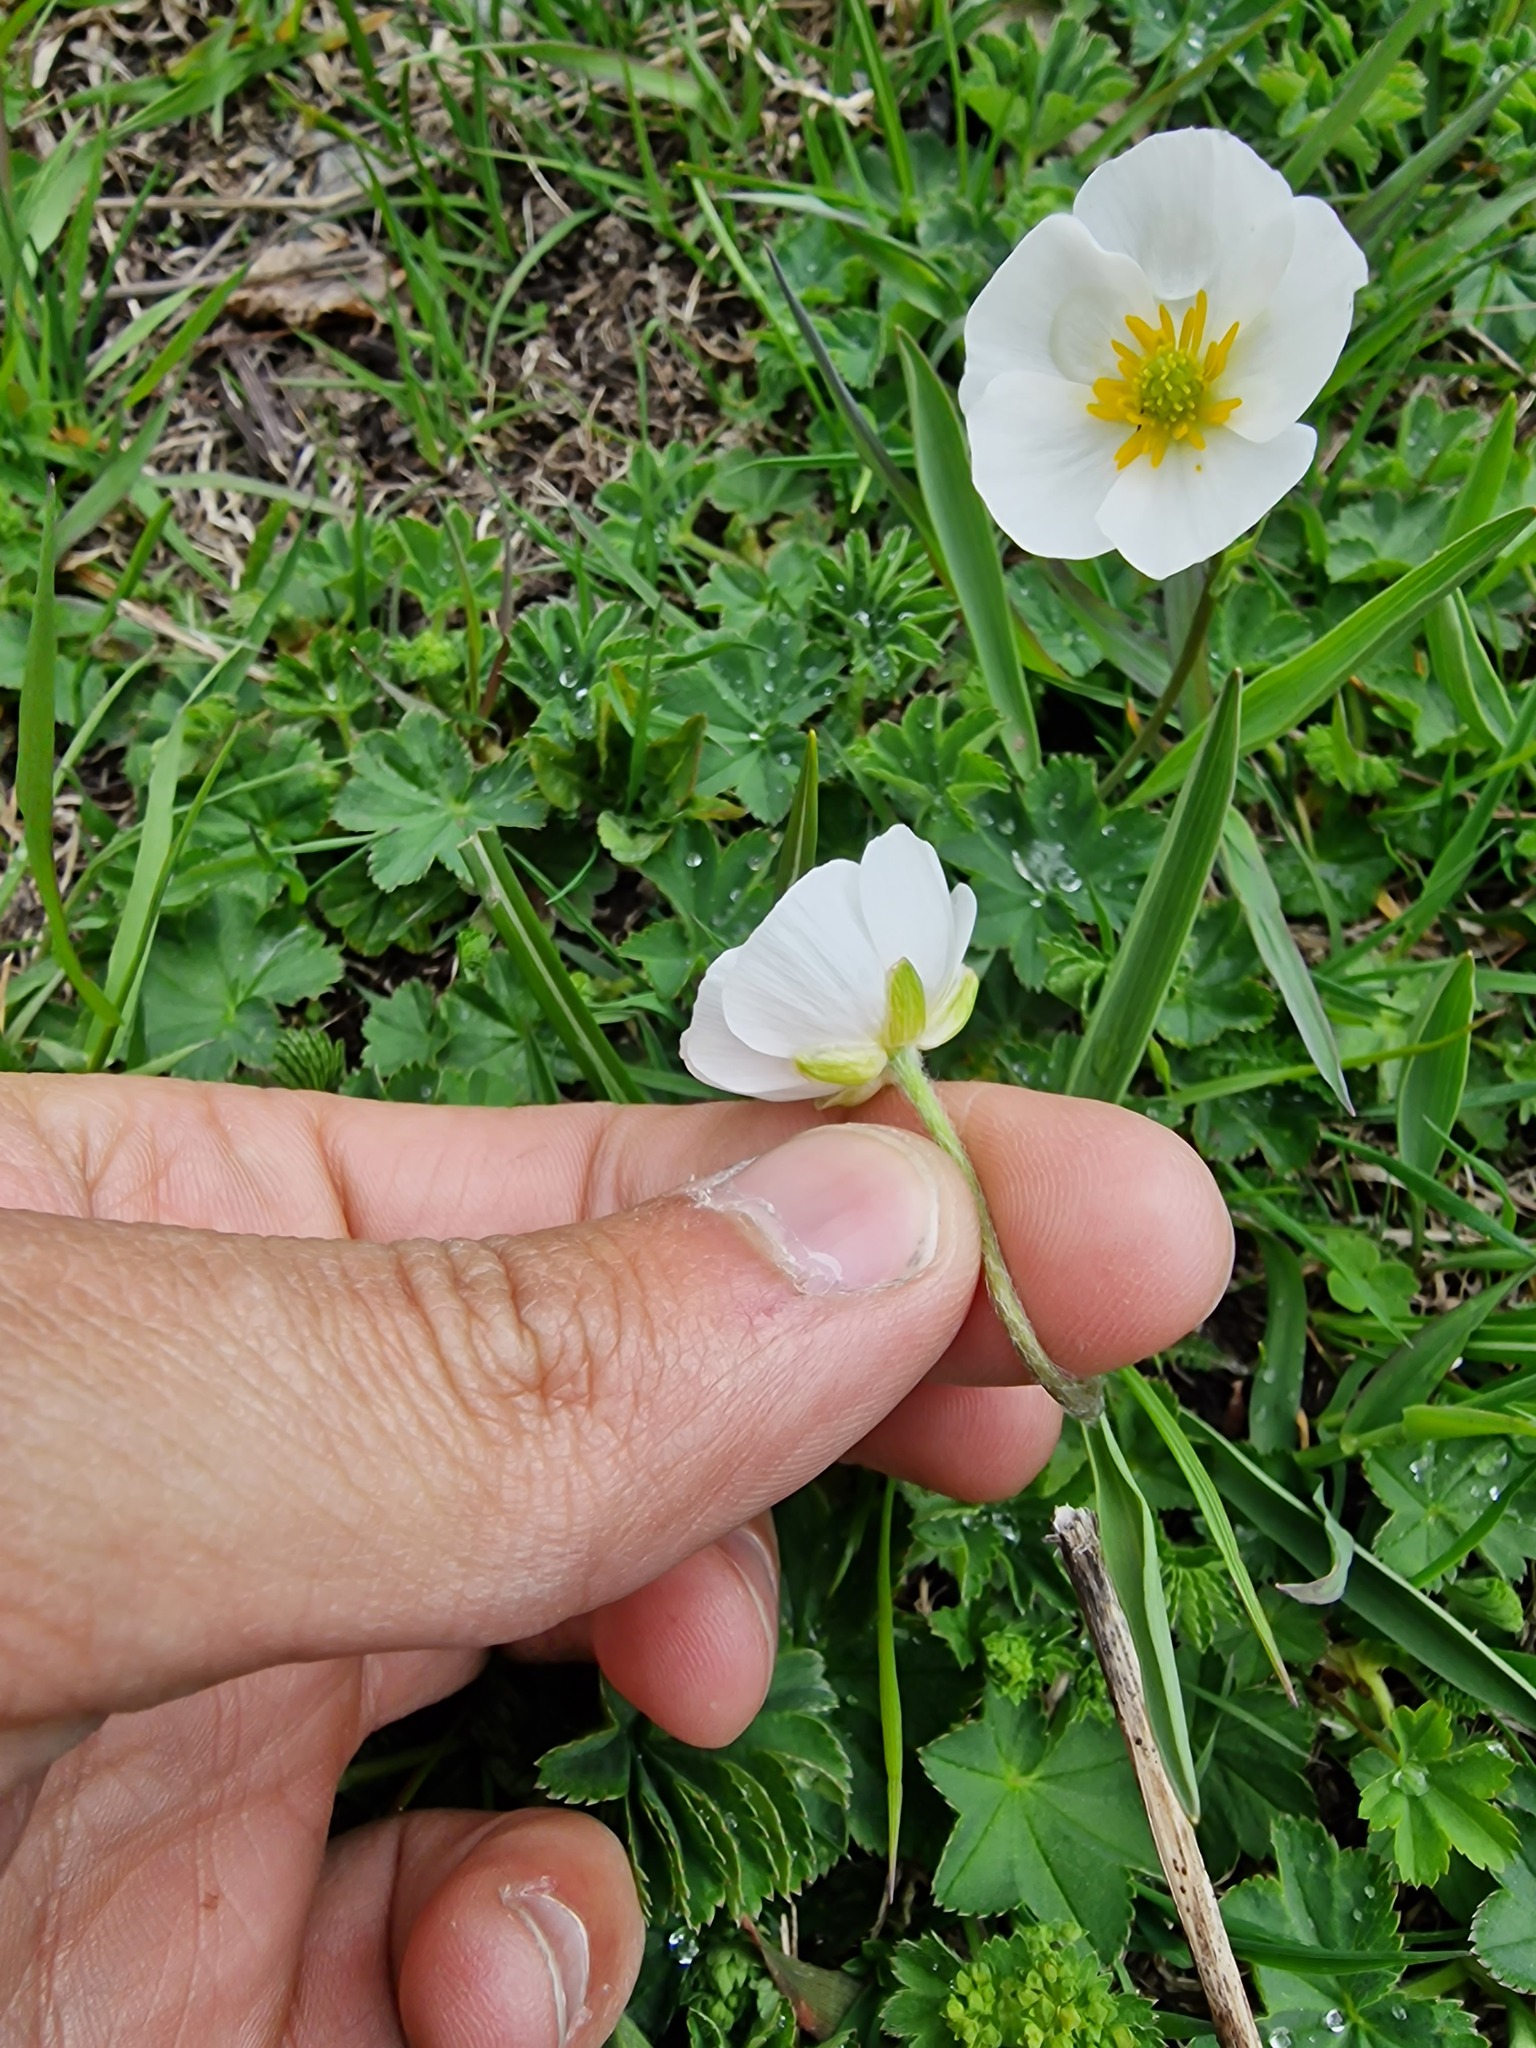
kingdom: Plantae
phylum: Tracheophyta
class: Magnoliopsida
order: Ranunculales
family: Ranunculaceae
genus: Ranunculus
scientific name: Ranunculus kuepferi
